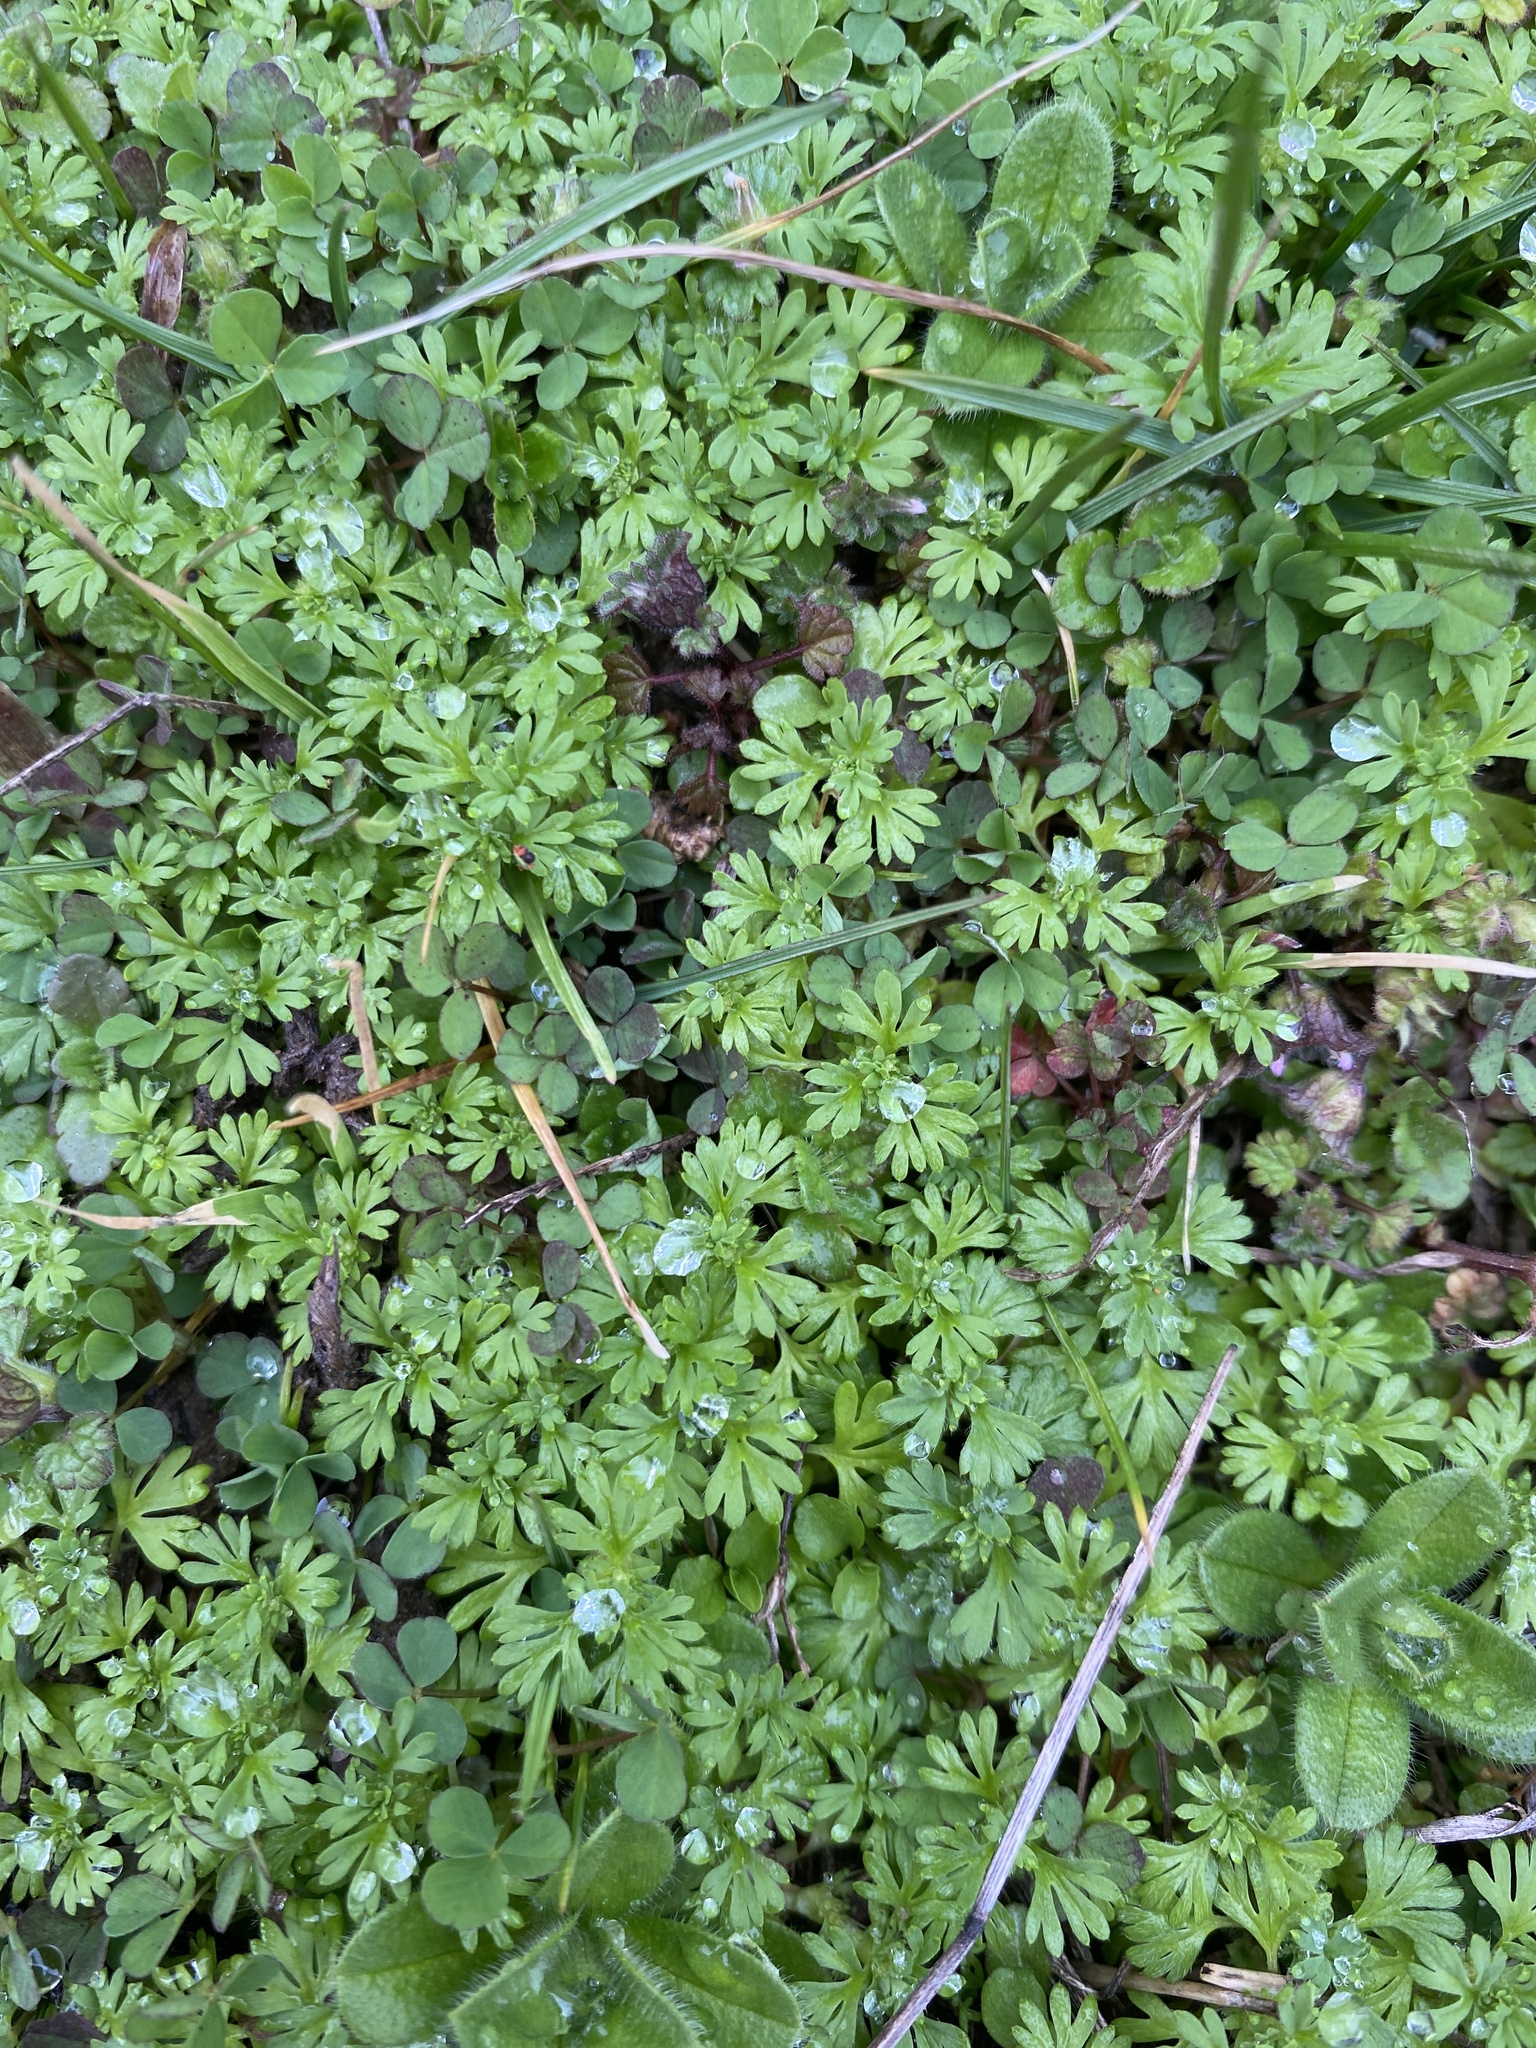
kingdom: Plantae
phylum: Tracheophyta
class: Magnoliopsida
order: Rosales
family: Rosaceae
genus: Aphanes
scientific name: Aphanes australis
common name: Slender parsley-piert
